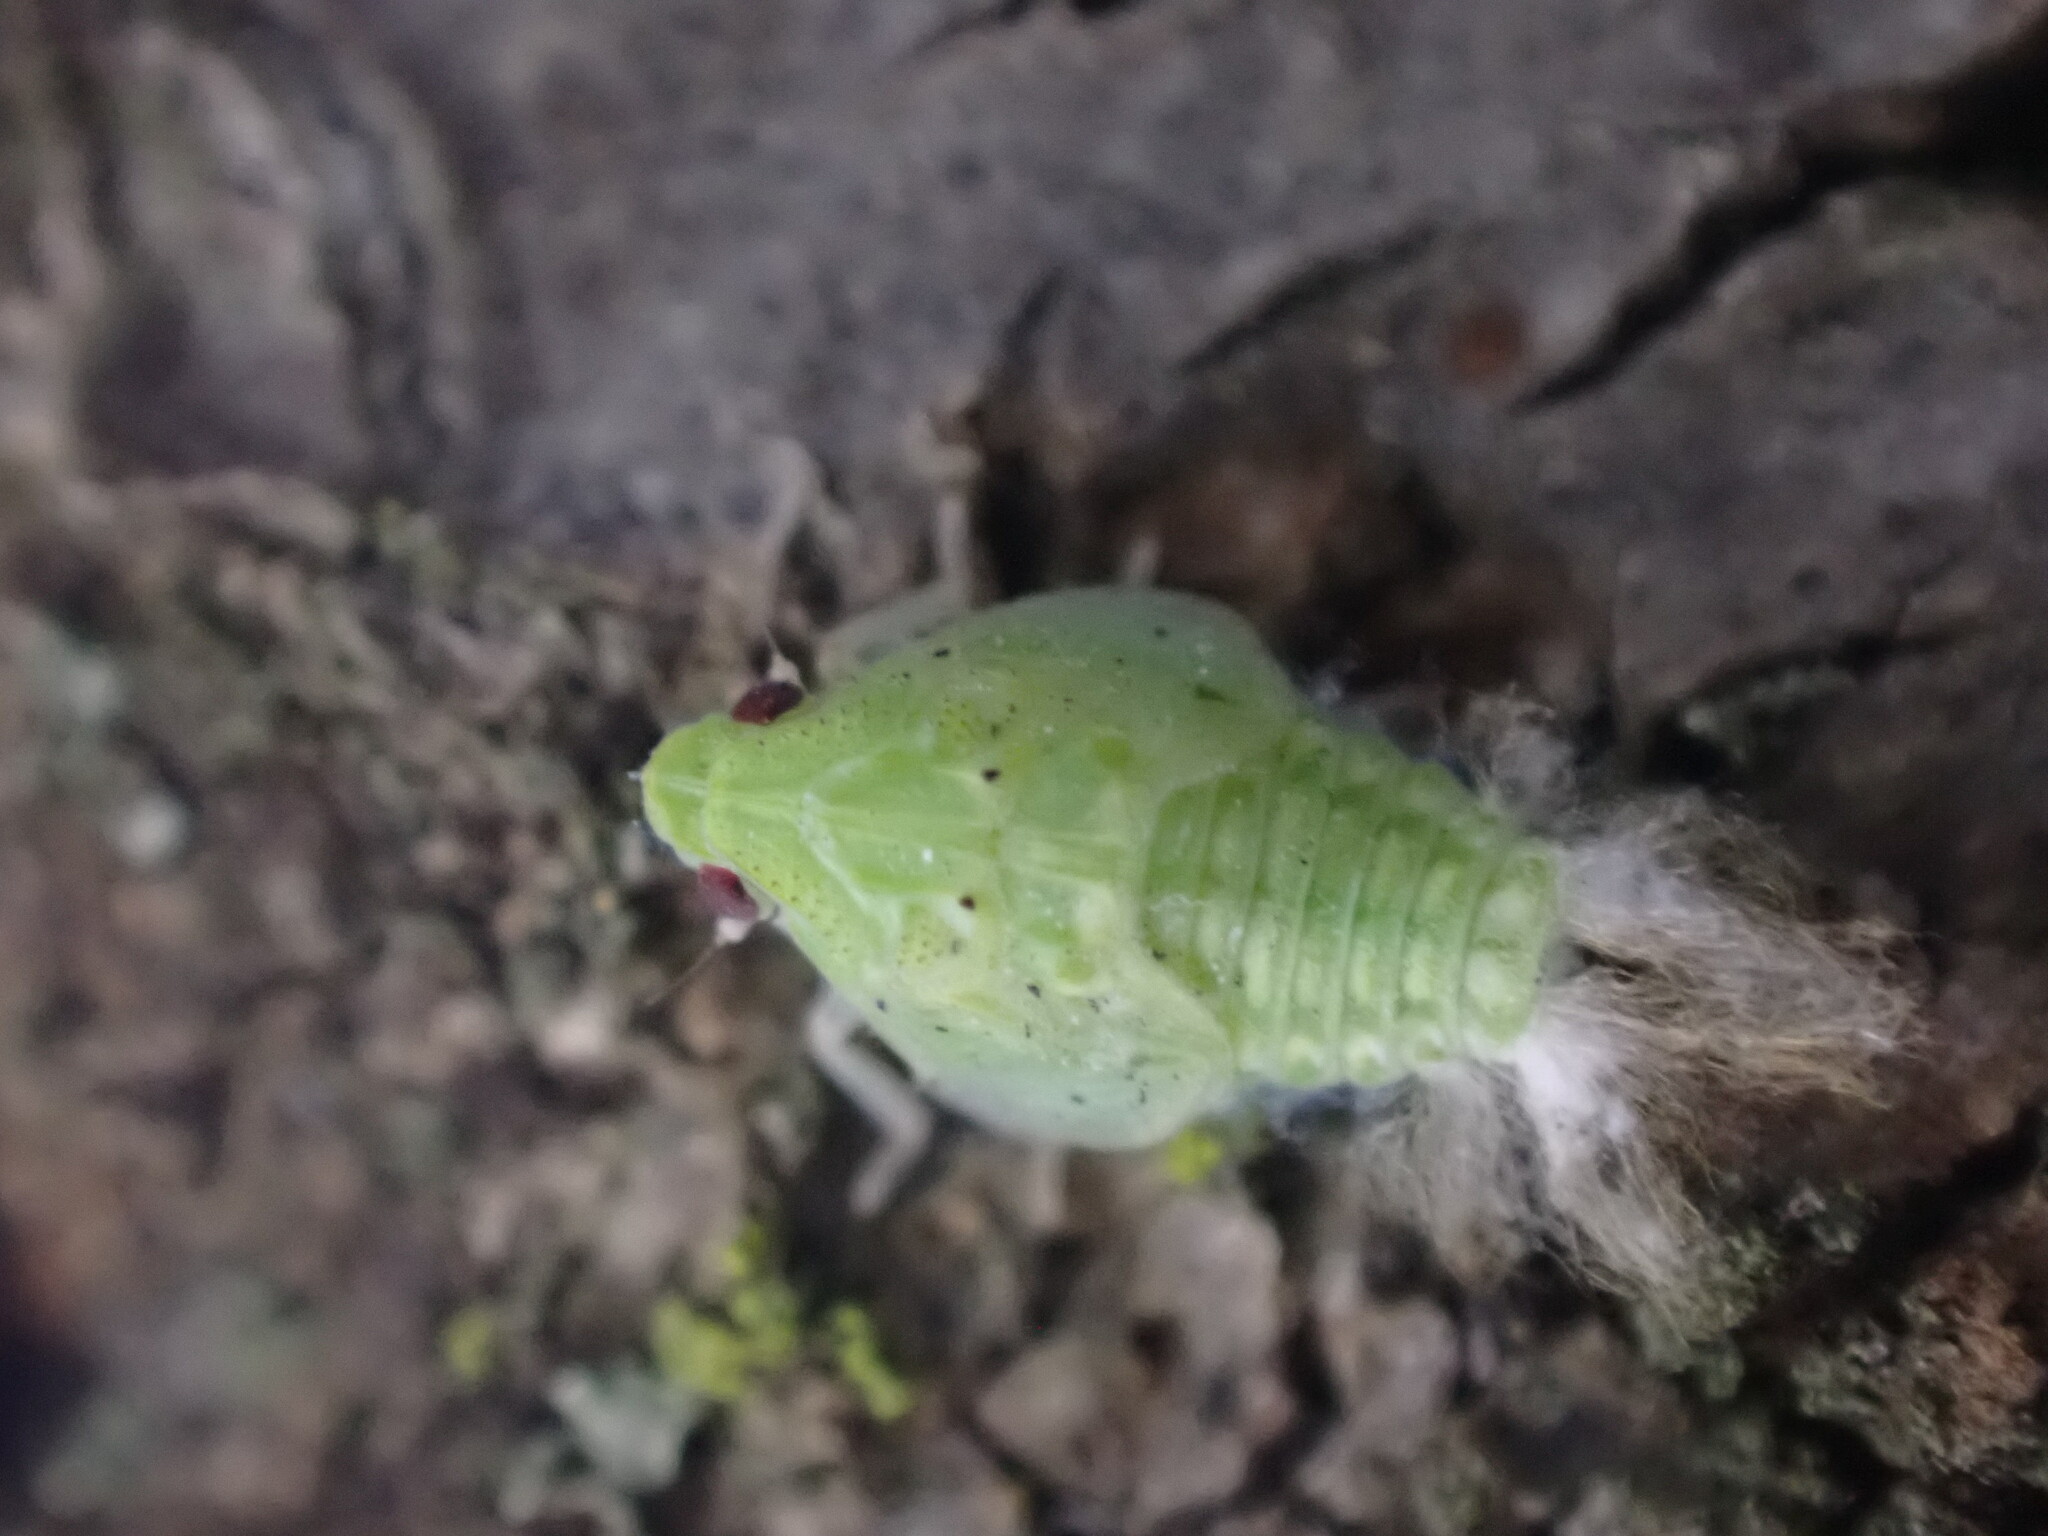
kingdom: Animalia
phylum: Arthropoda
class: Insecta
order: Hemiptera
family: Flatidae
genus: Siphanta
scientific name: Siphanta acuta
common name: Torpedo bug
